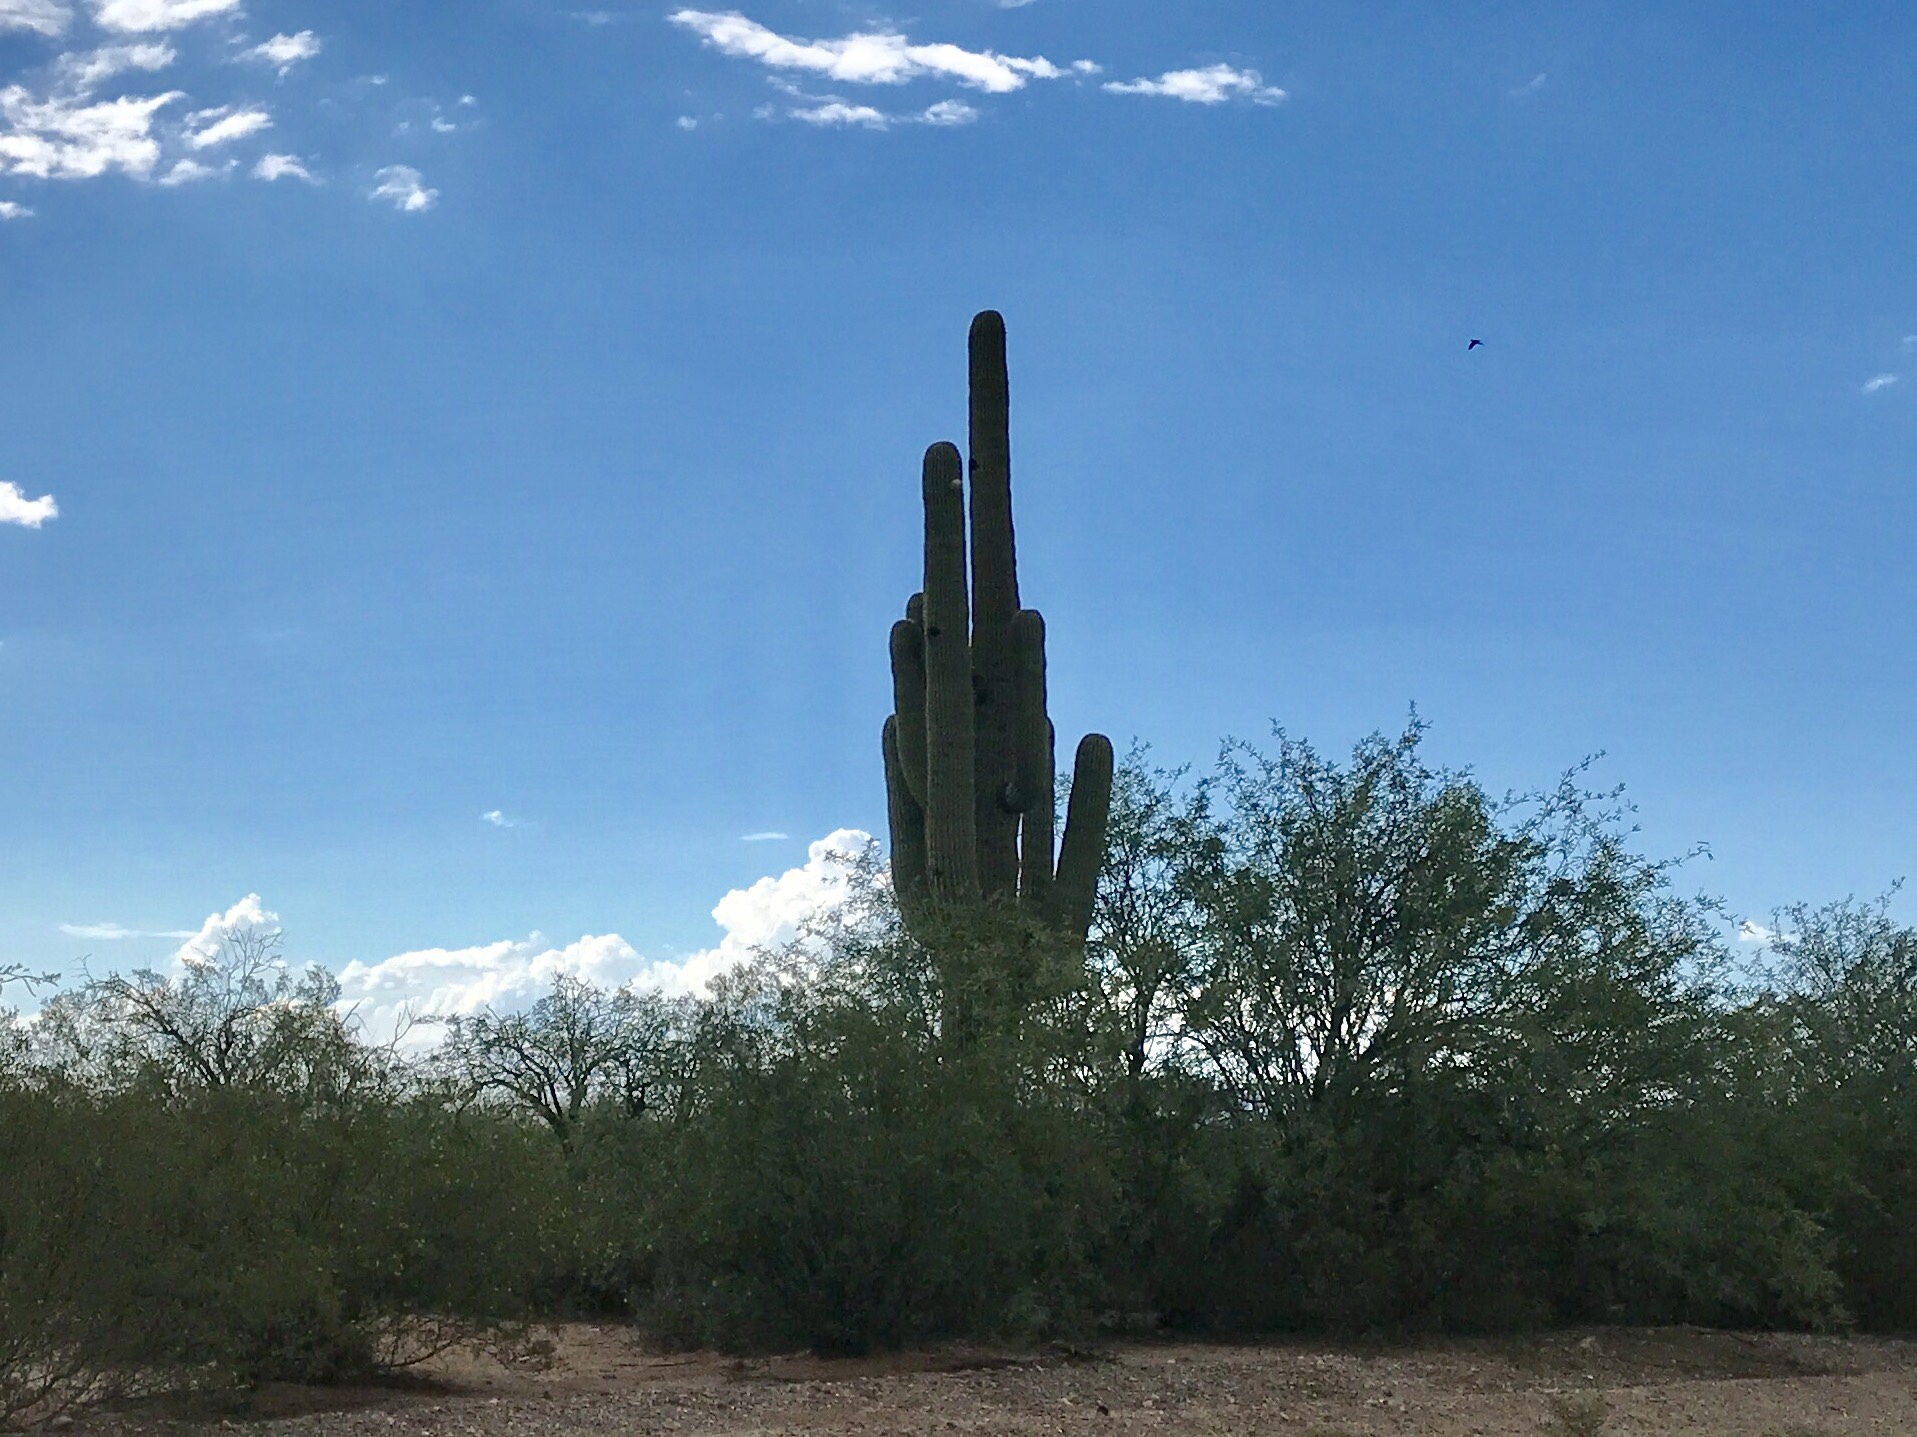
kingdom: Plantae
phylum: Tracheophyta
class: Magnoliopsida
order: Caryophyllales
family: Cactaceae
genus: Carnegiea
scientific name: Carnegiea gigantea
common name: Saguaro
